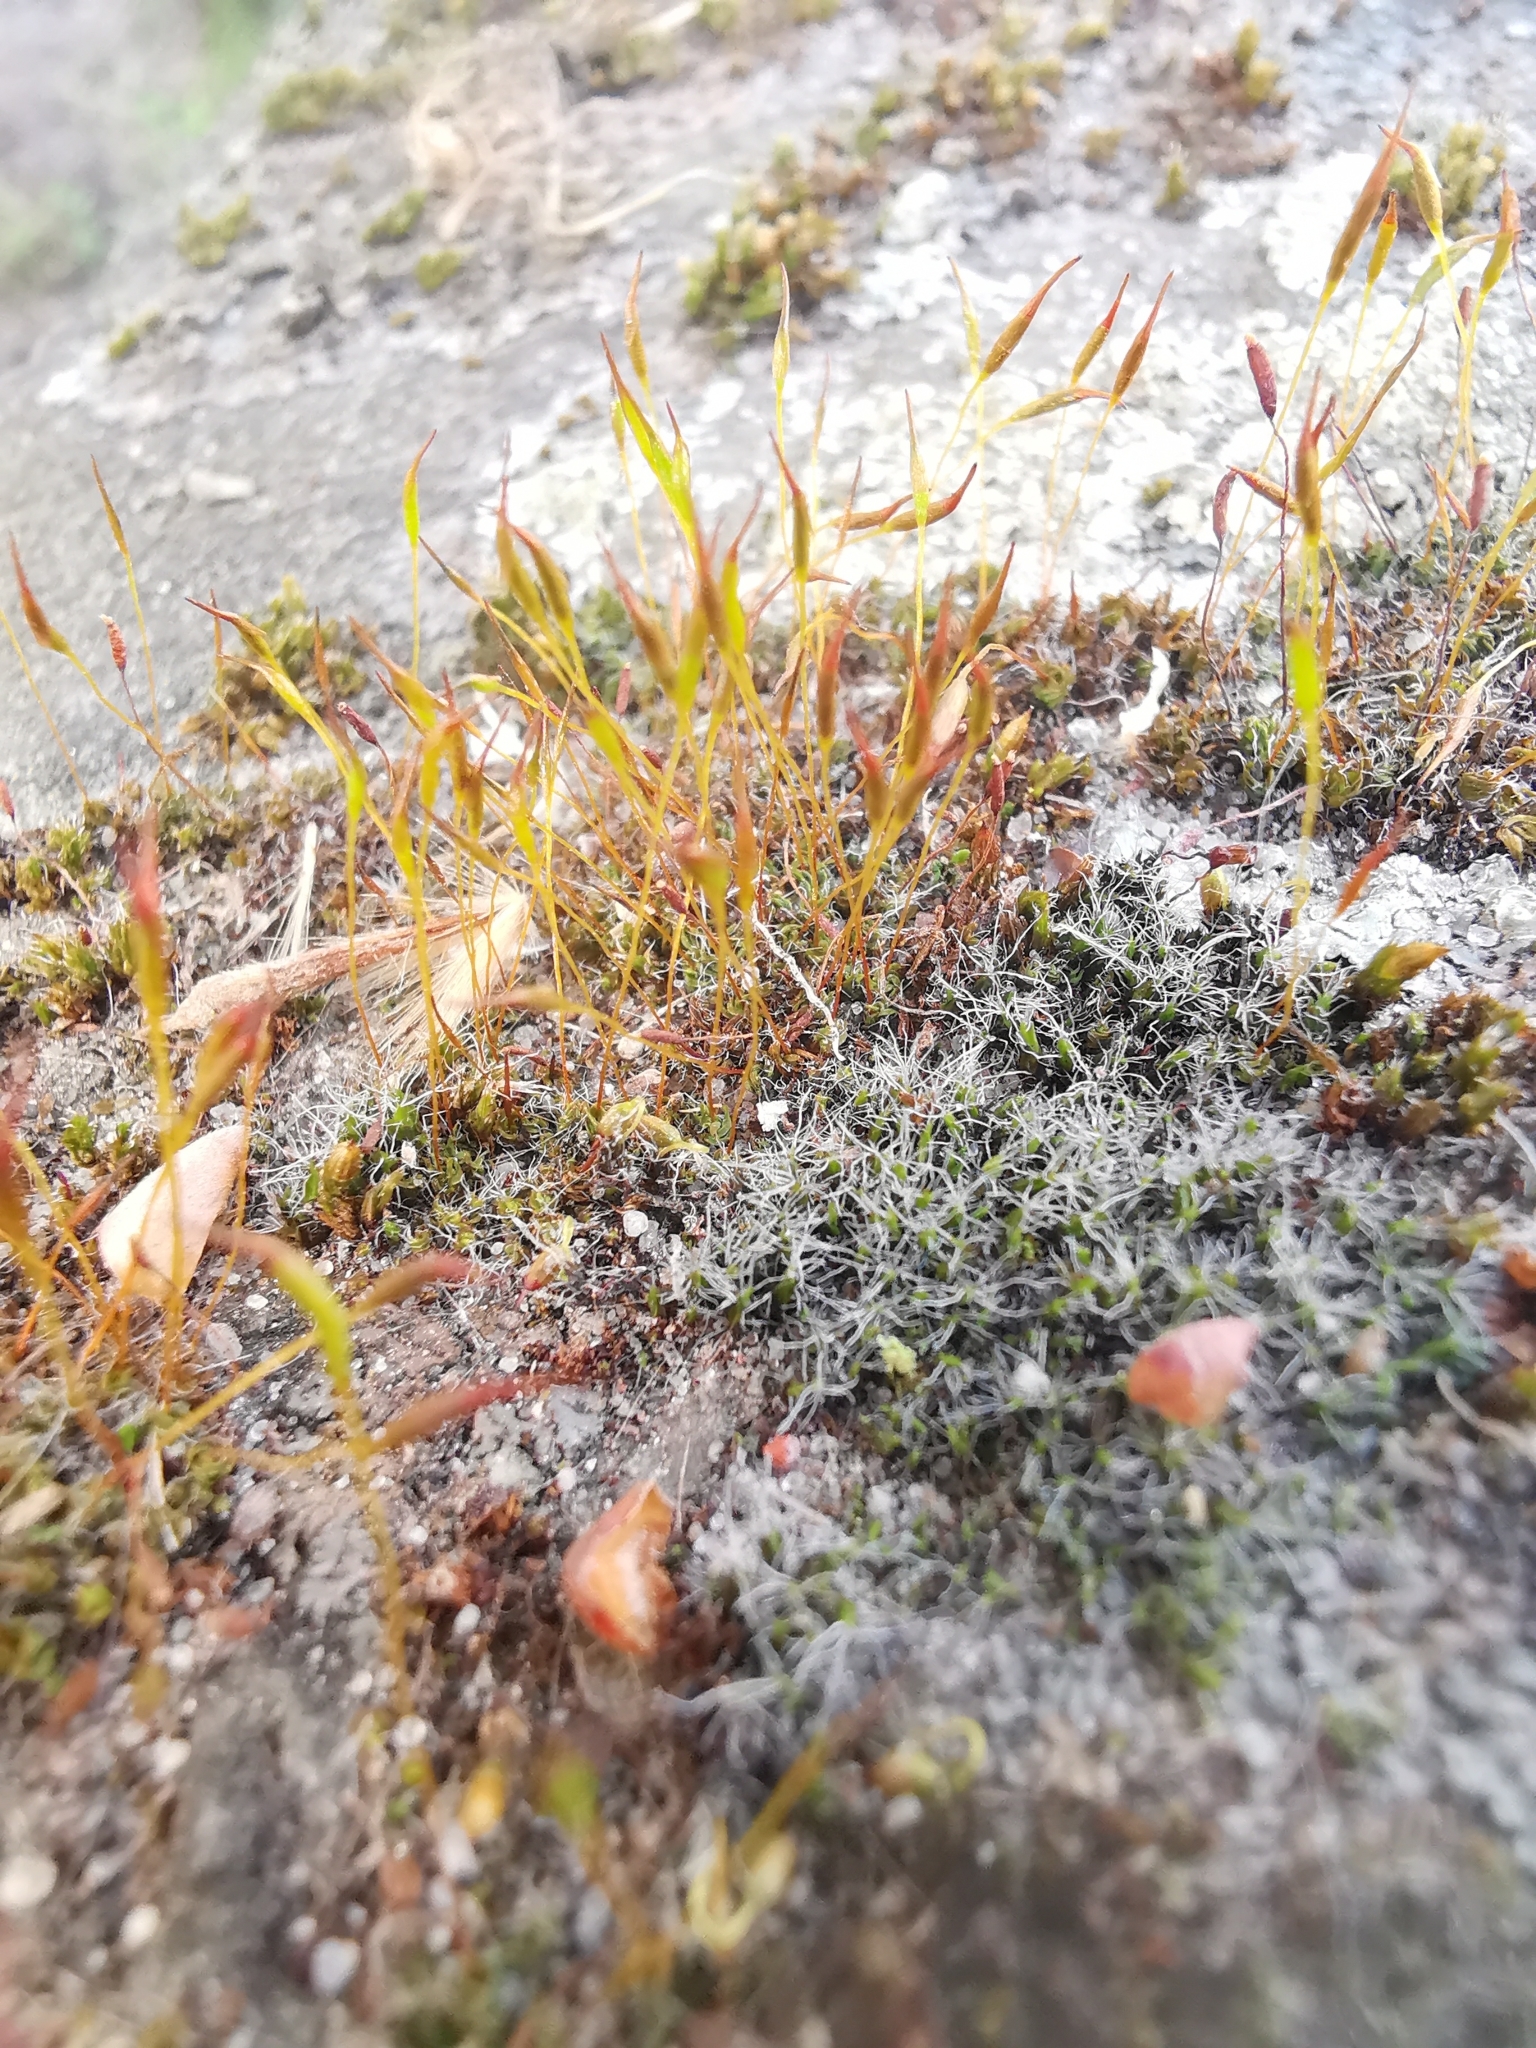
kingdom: Plantae
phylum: Bryophyta
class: Bryopsida
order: Pottiales
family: Pottiaceae
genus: Tortula
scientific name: Tortula muralis
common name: Wall screw-moss
